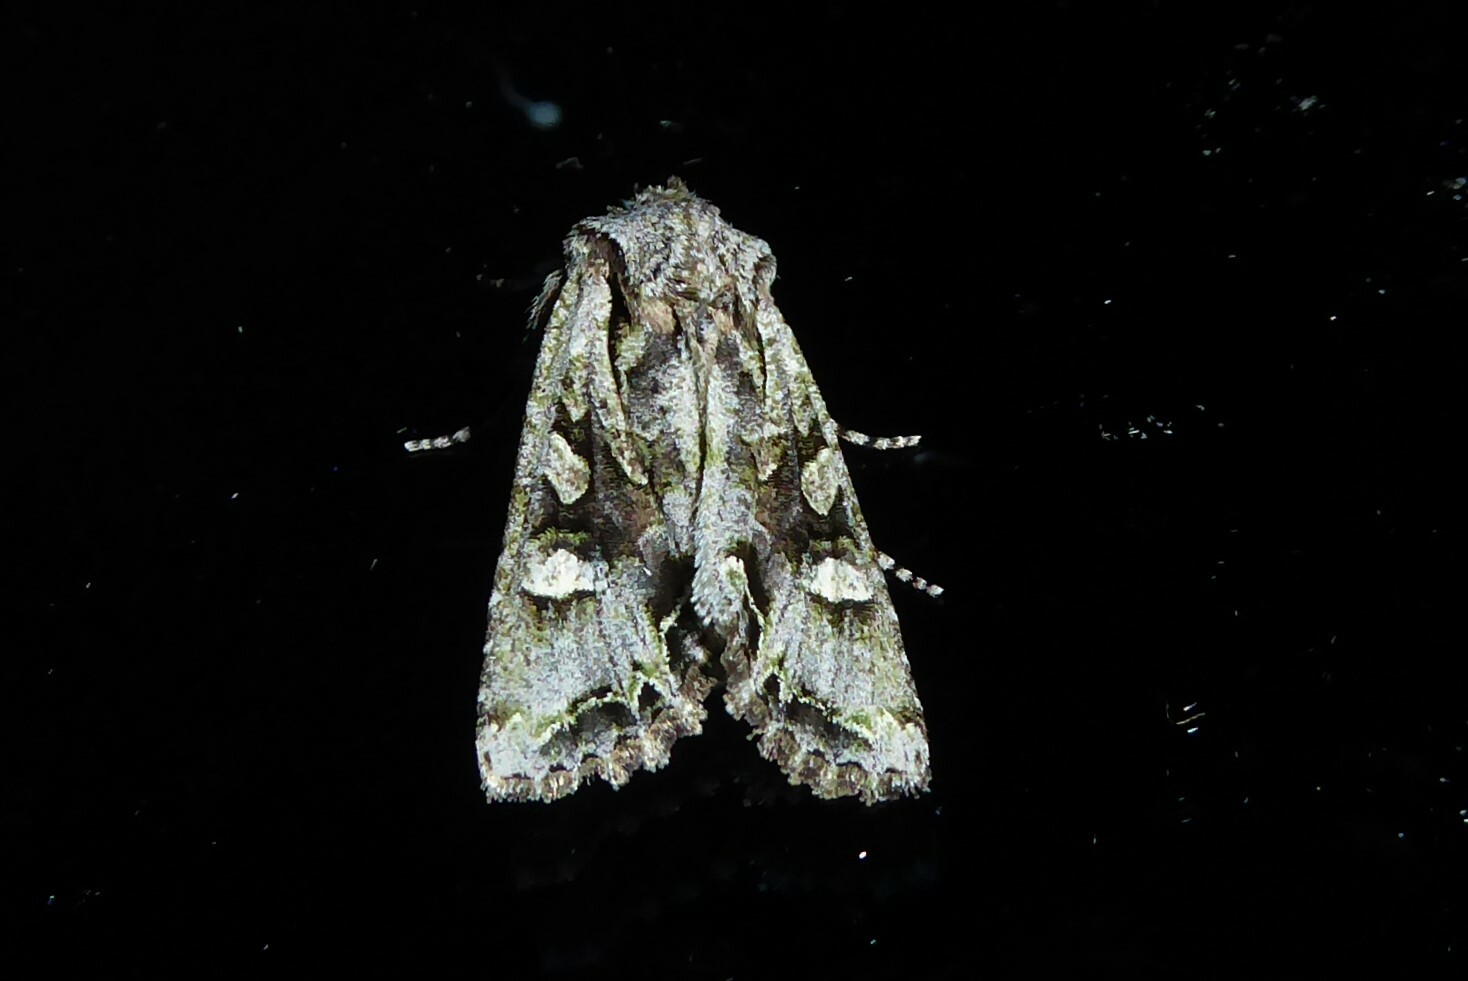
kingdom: Animalia
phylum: Arthropoda
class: Insecta
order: Lepidoptera
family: Noctuidae
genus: Ichneutica
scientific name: Ichneutica insignis
